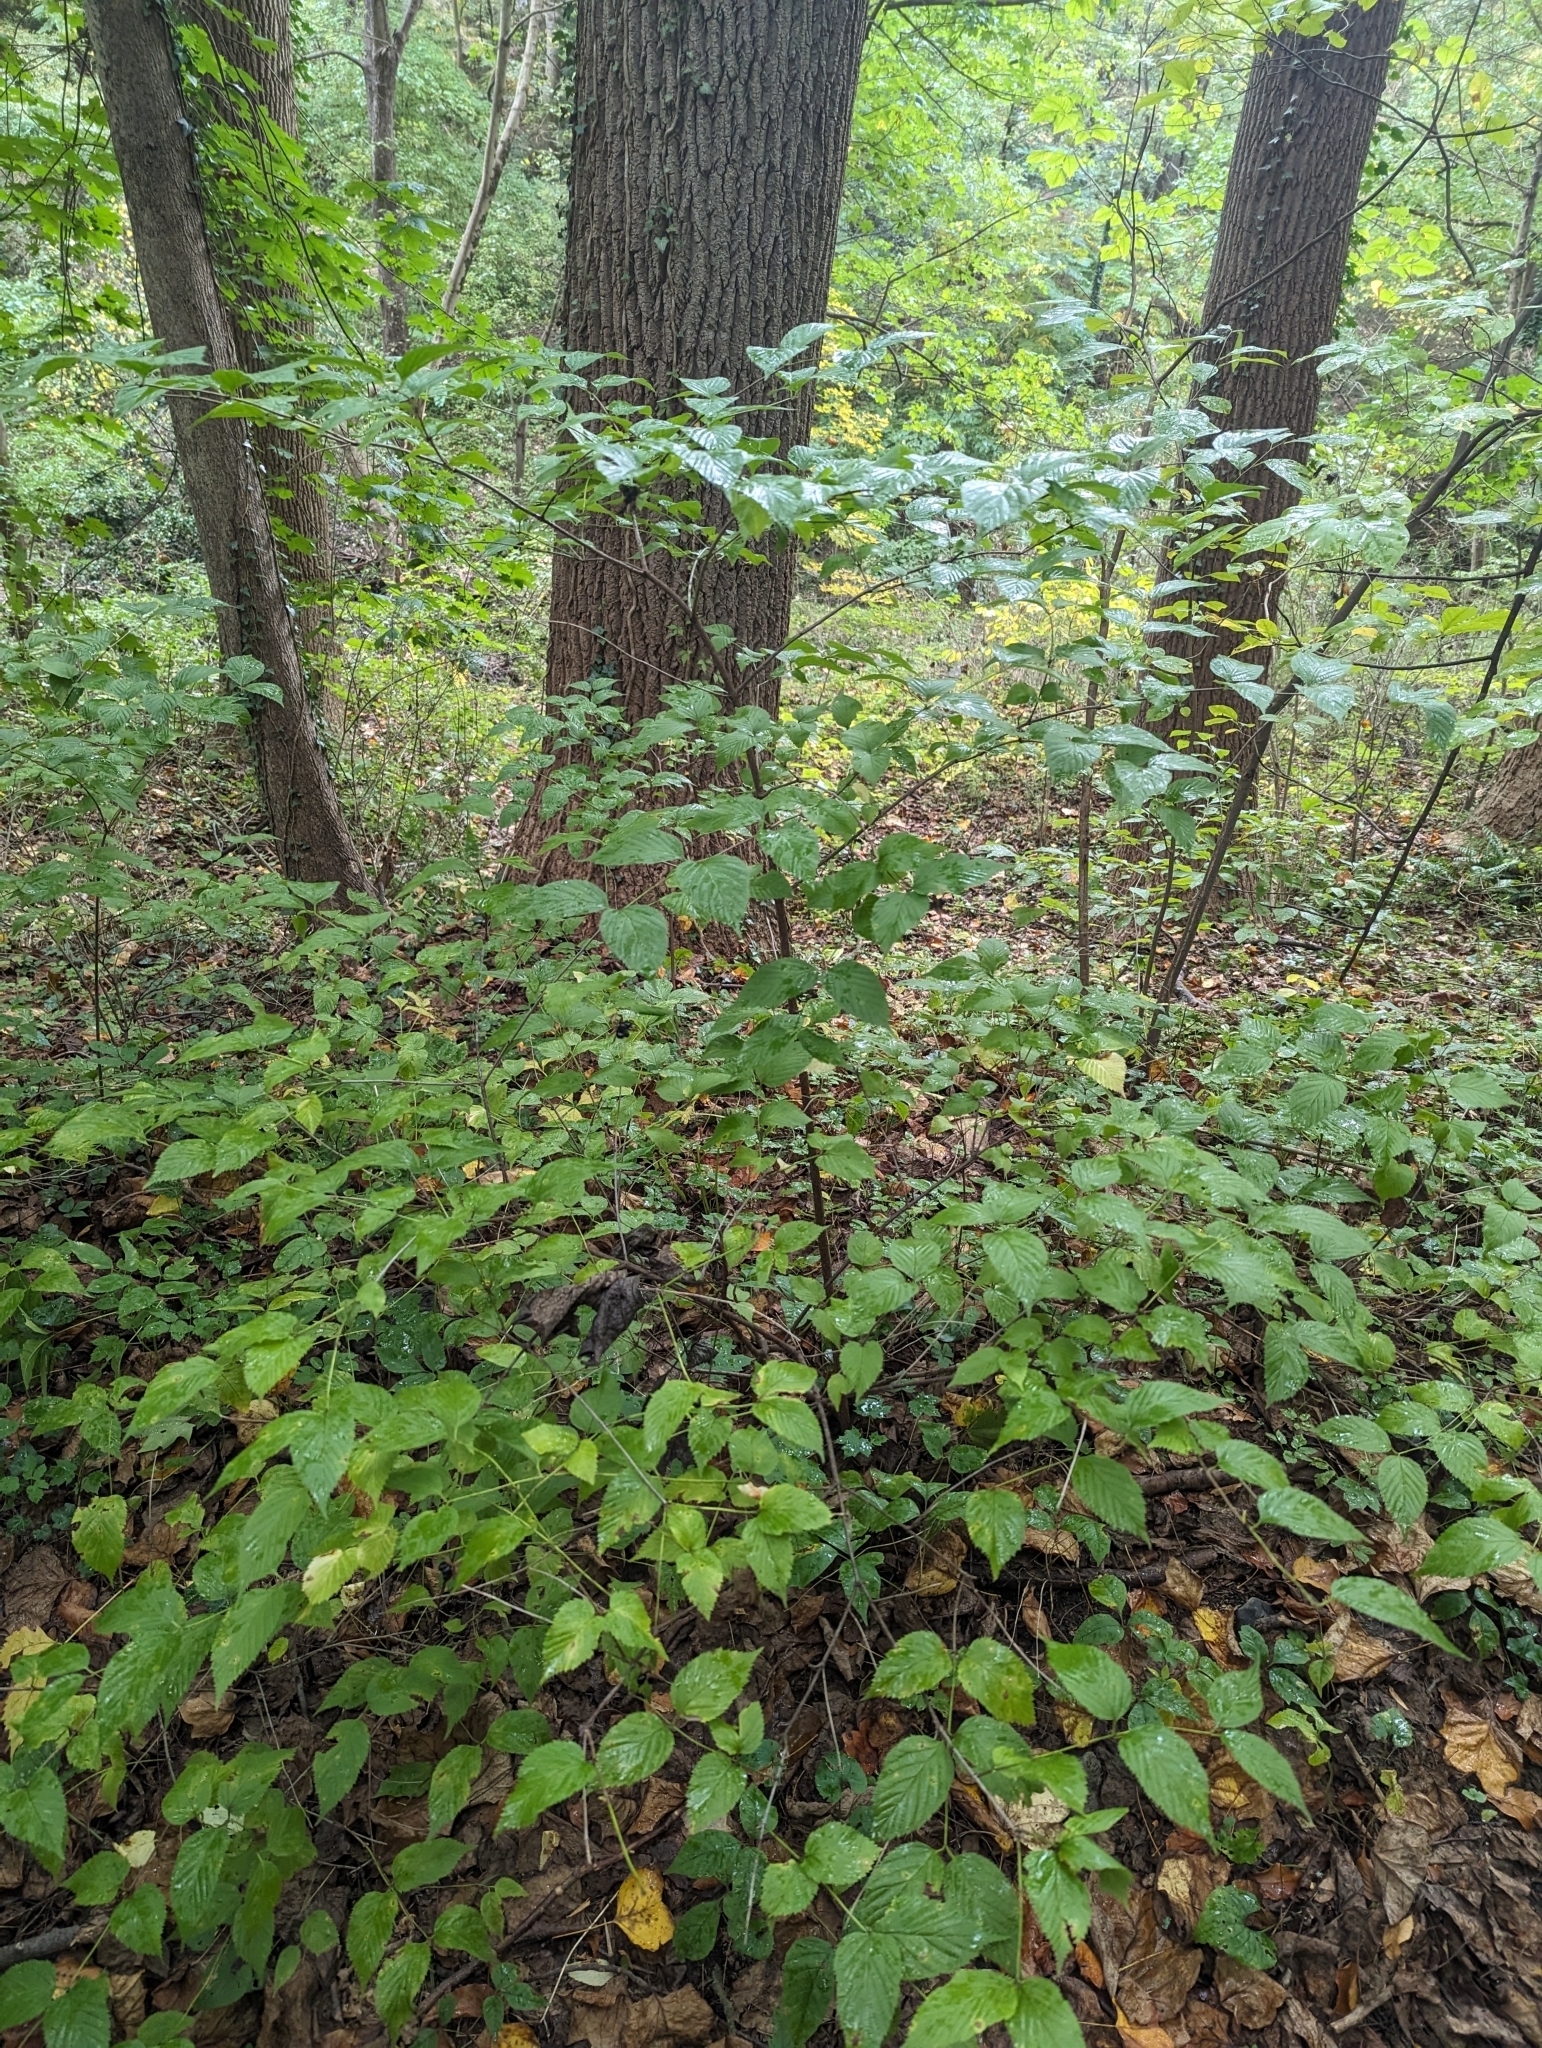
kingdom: Plantae
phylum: Tracheophyta
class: Magnoliopsida
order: Rosales
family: Rosaceae
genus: Rhodotypos
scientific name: Rhodotypos scandens
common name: Jetbead
